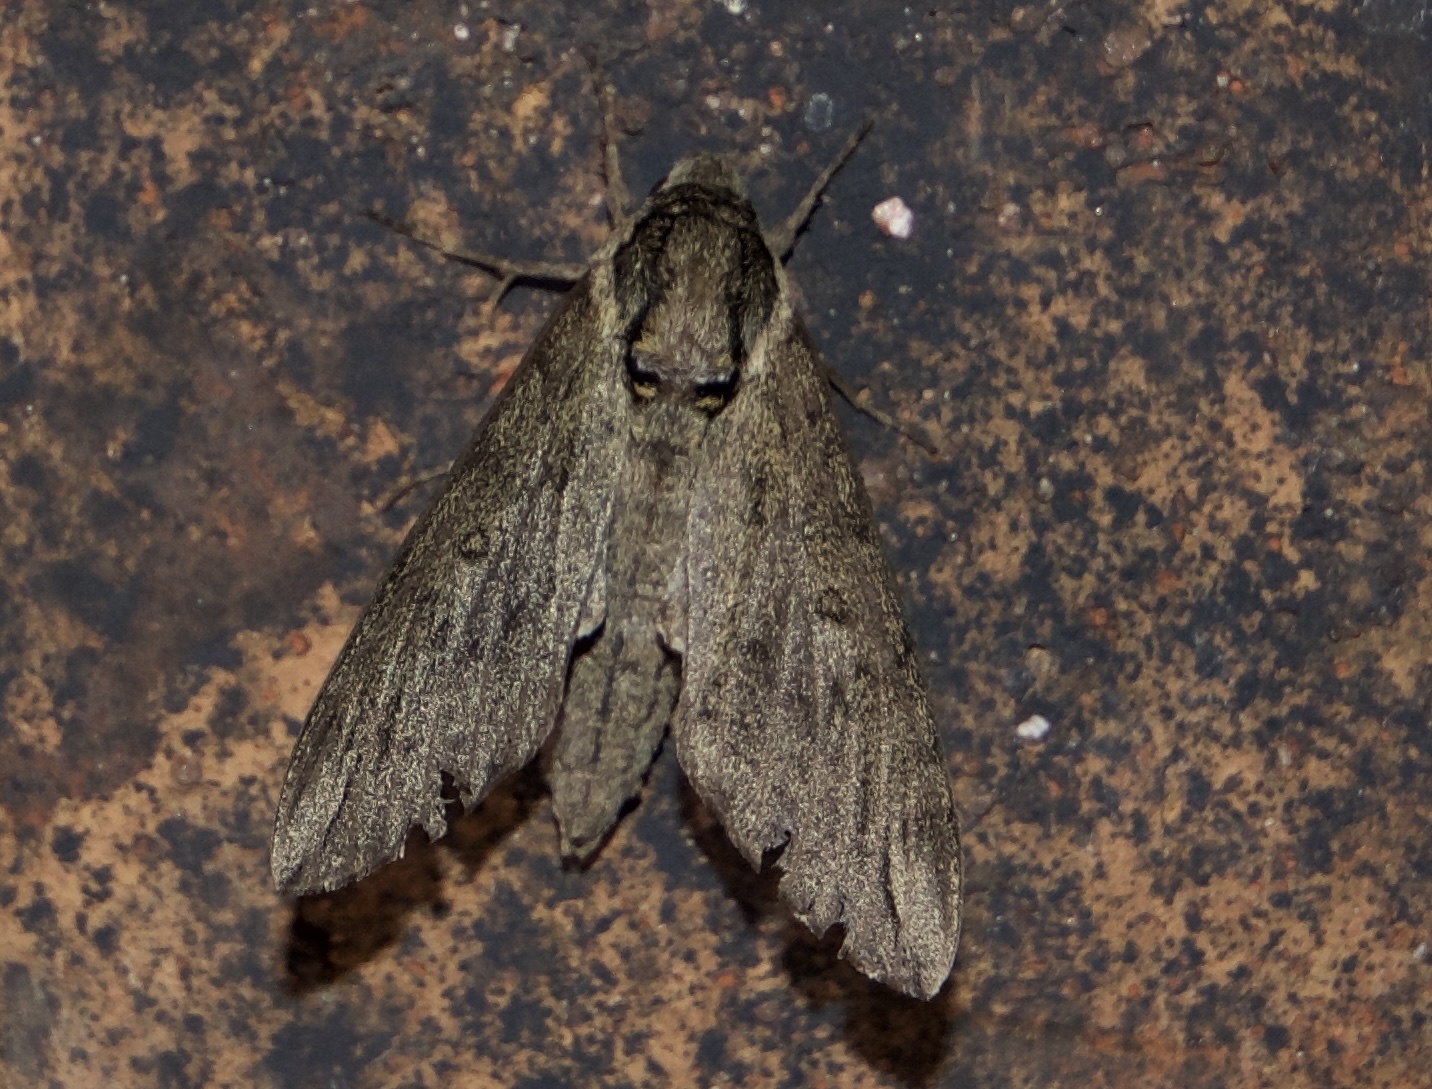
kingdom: Animalia
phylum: Arthropoda
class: Insecta
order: Lepidoptera
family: Sphingidae
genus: Ceratomia
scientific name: Ceratomia catalpae
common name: Catalpa hornworm
